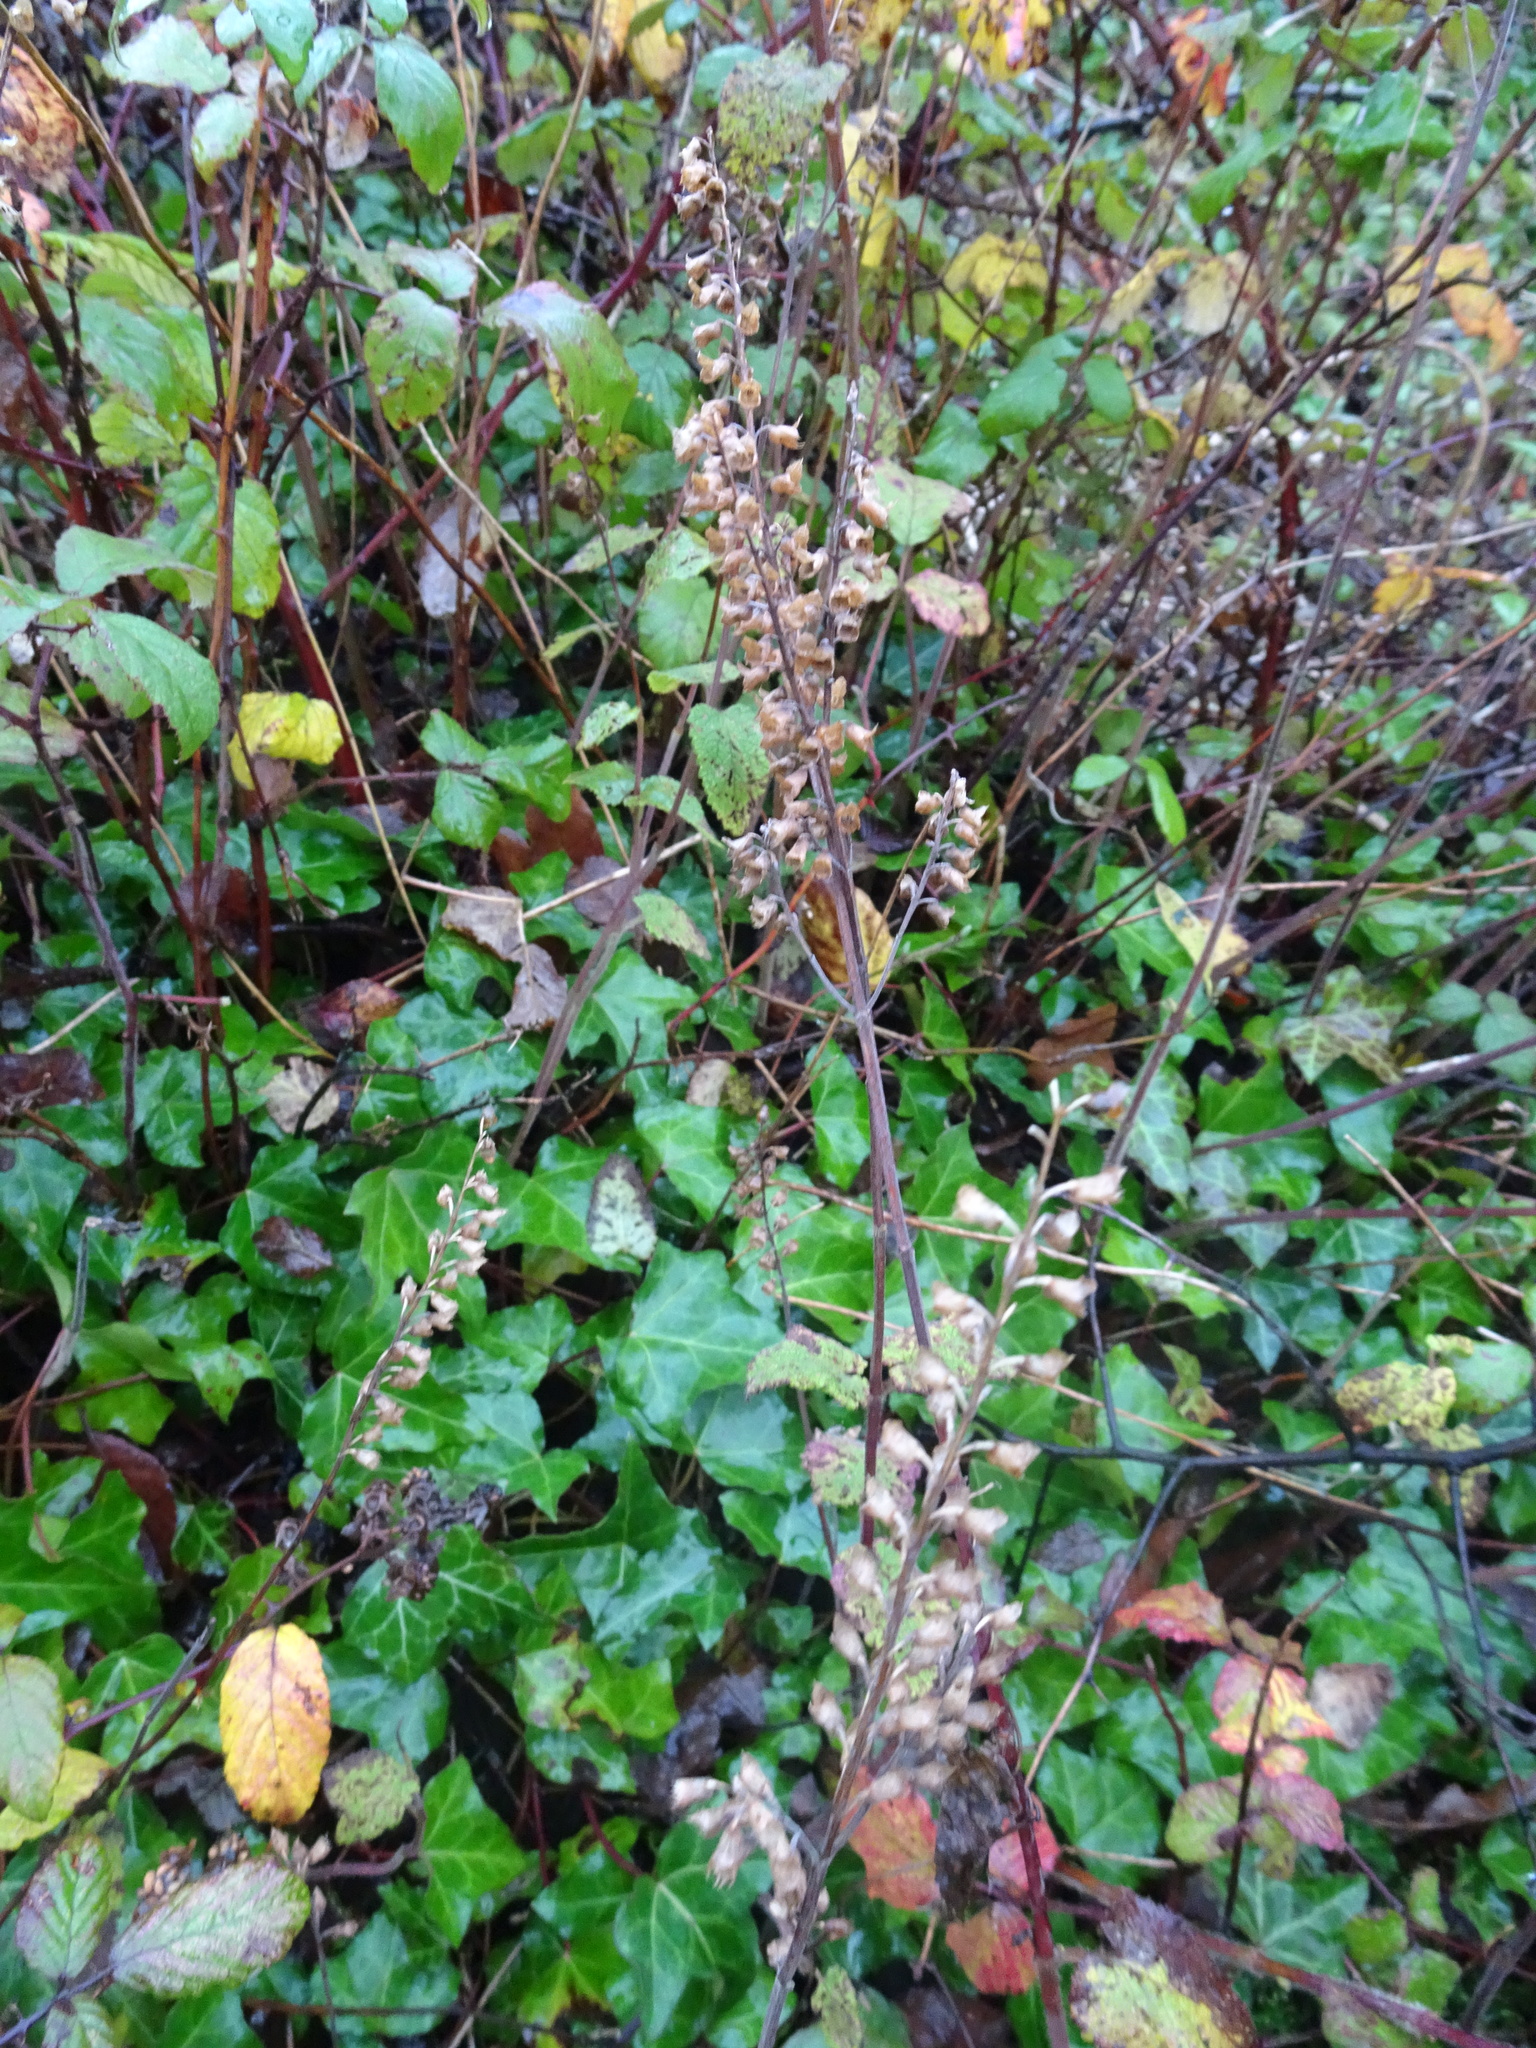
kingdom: Plantae
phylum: Tracheophyta
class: Magnoliopsida
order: Lamiales
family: Lamiaceae
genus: Teucrium
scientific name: Teucrium scorodonia
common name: Woodland germander
